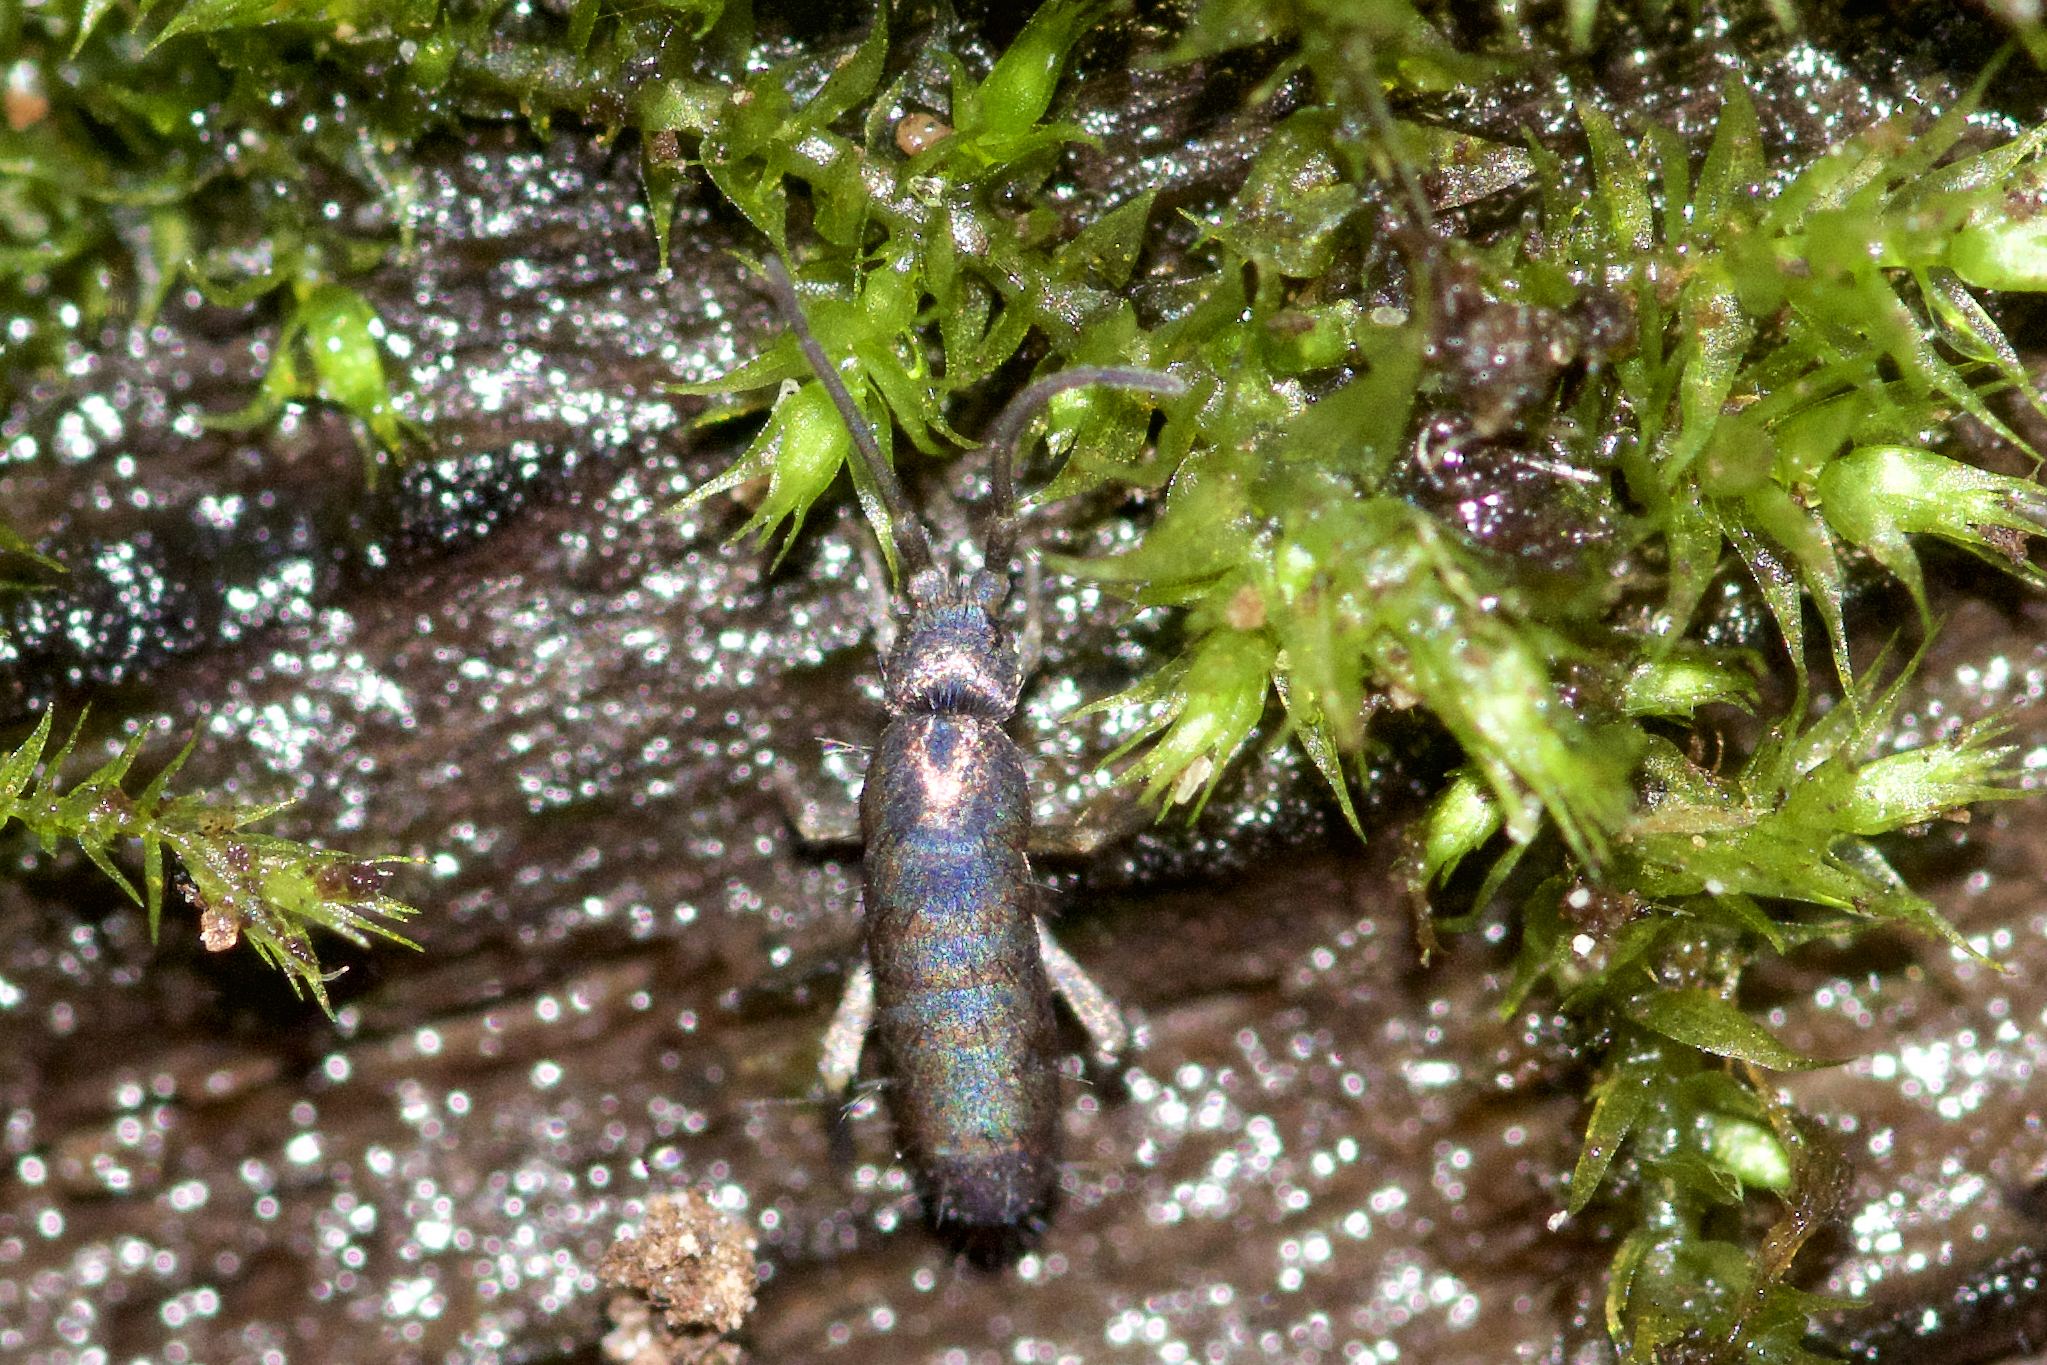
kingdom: Animalia
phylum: Arthropoda
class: Collembola
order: Entomobryomorpha
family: Tomoceridae
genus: Tomocerus
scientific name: Tomocerus minor
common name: Springtail
